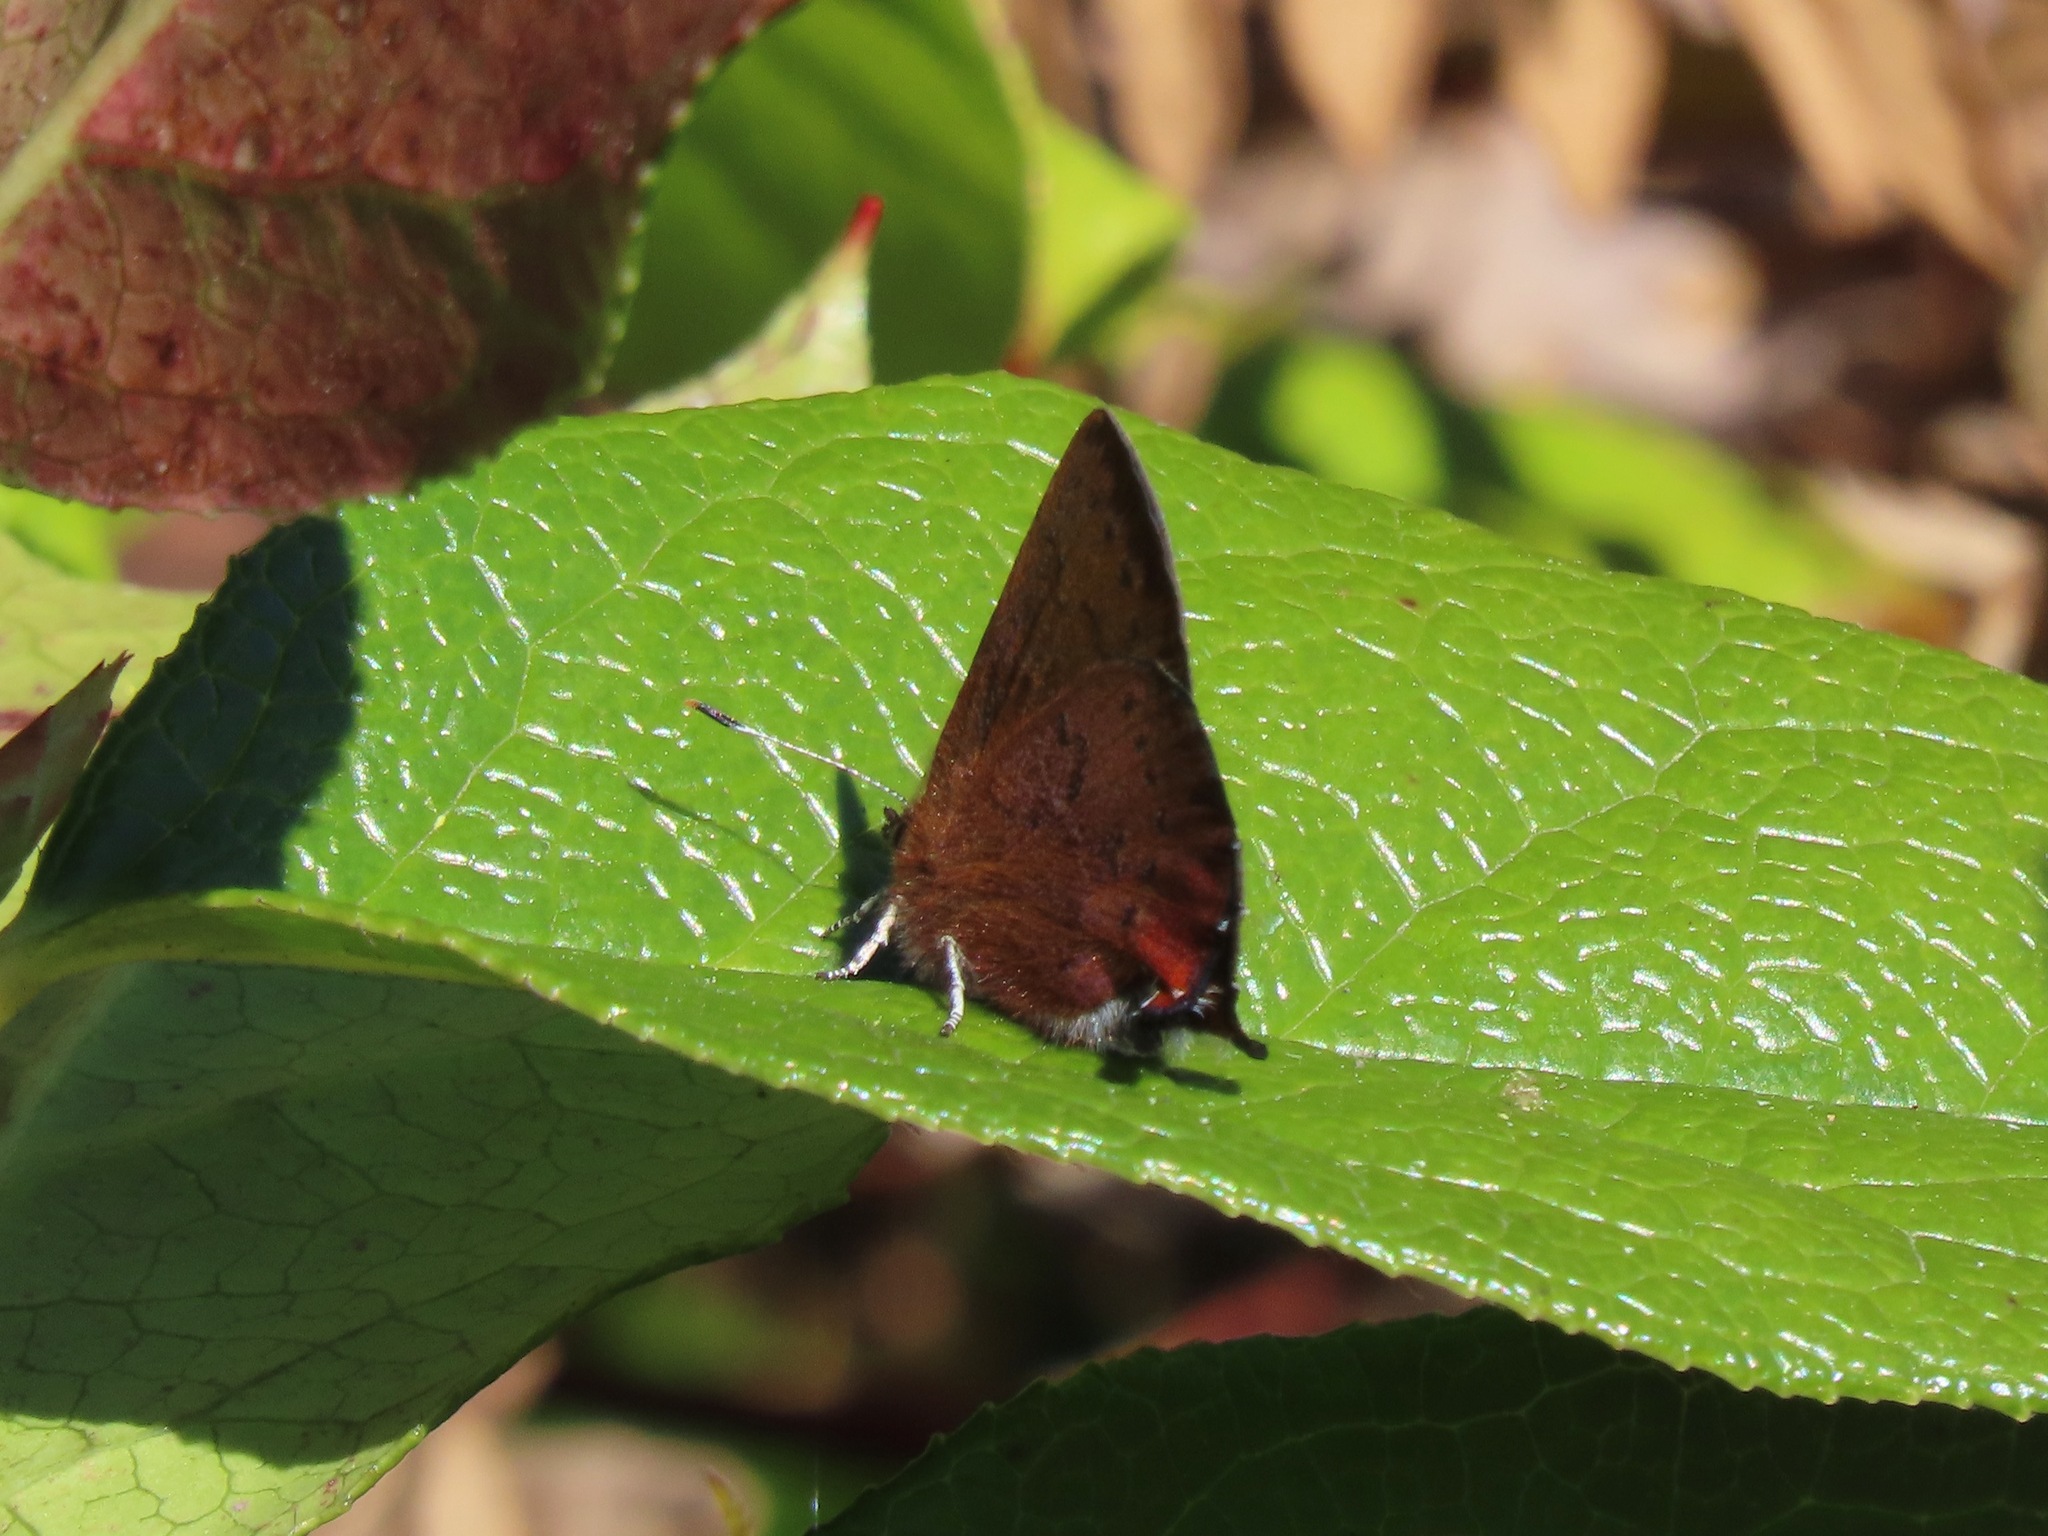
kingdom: Animalia
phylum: Arthropoda
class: Insecta
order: Lepidoptera
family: Lycaenidae
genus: Incisalia
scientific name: Incisalia irioides
